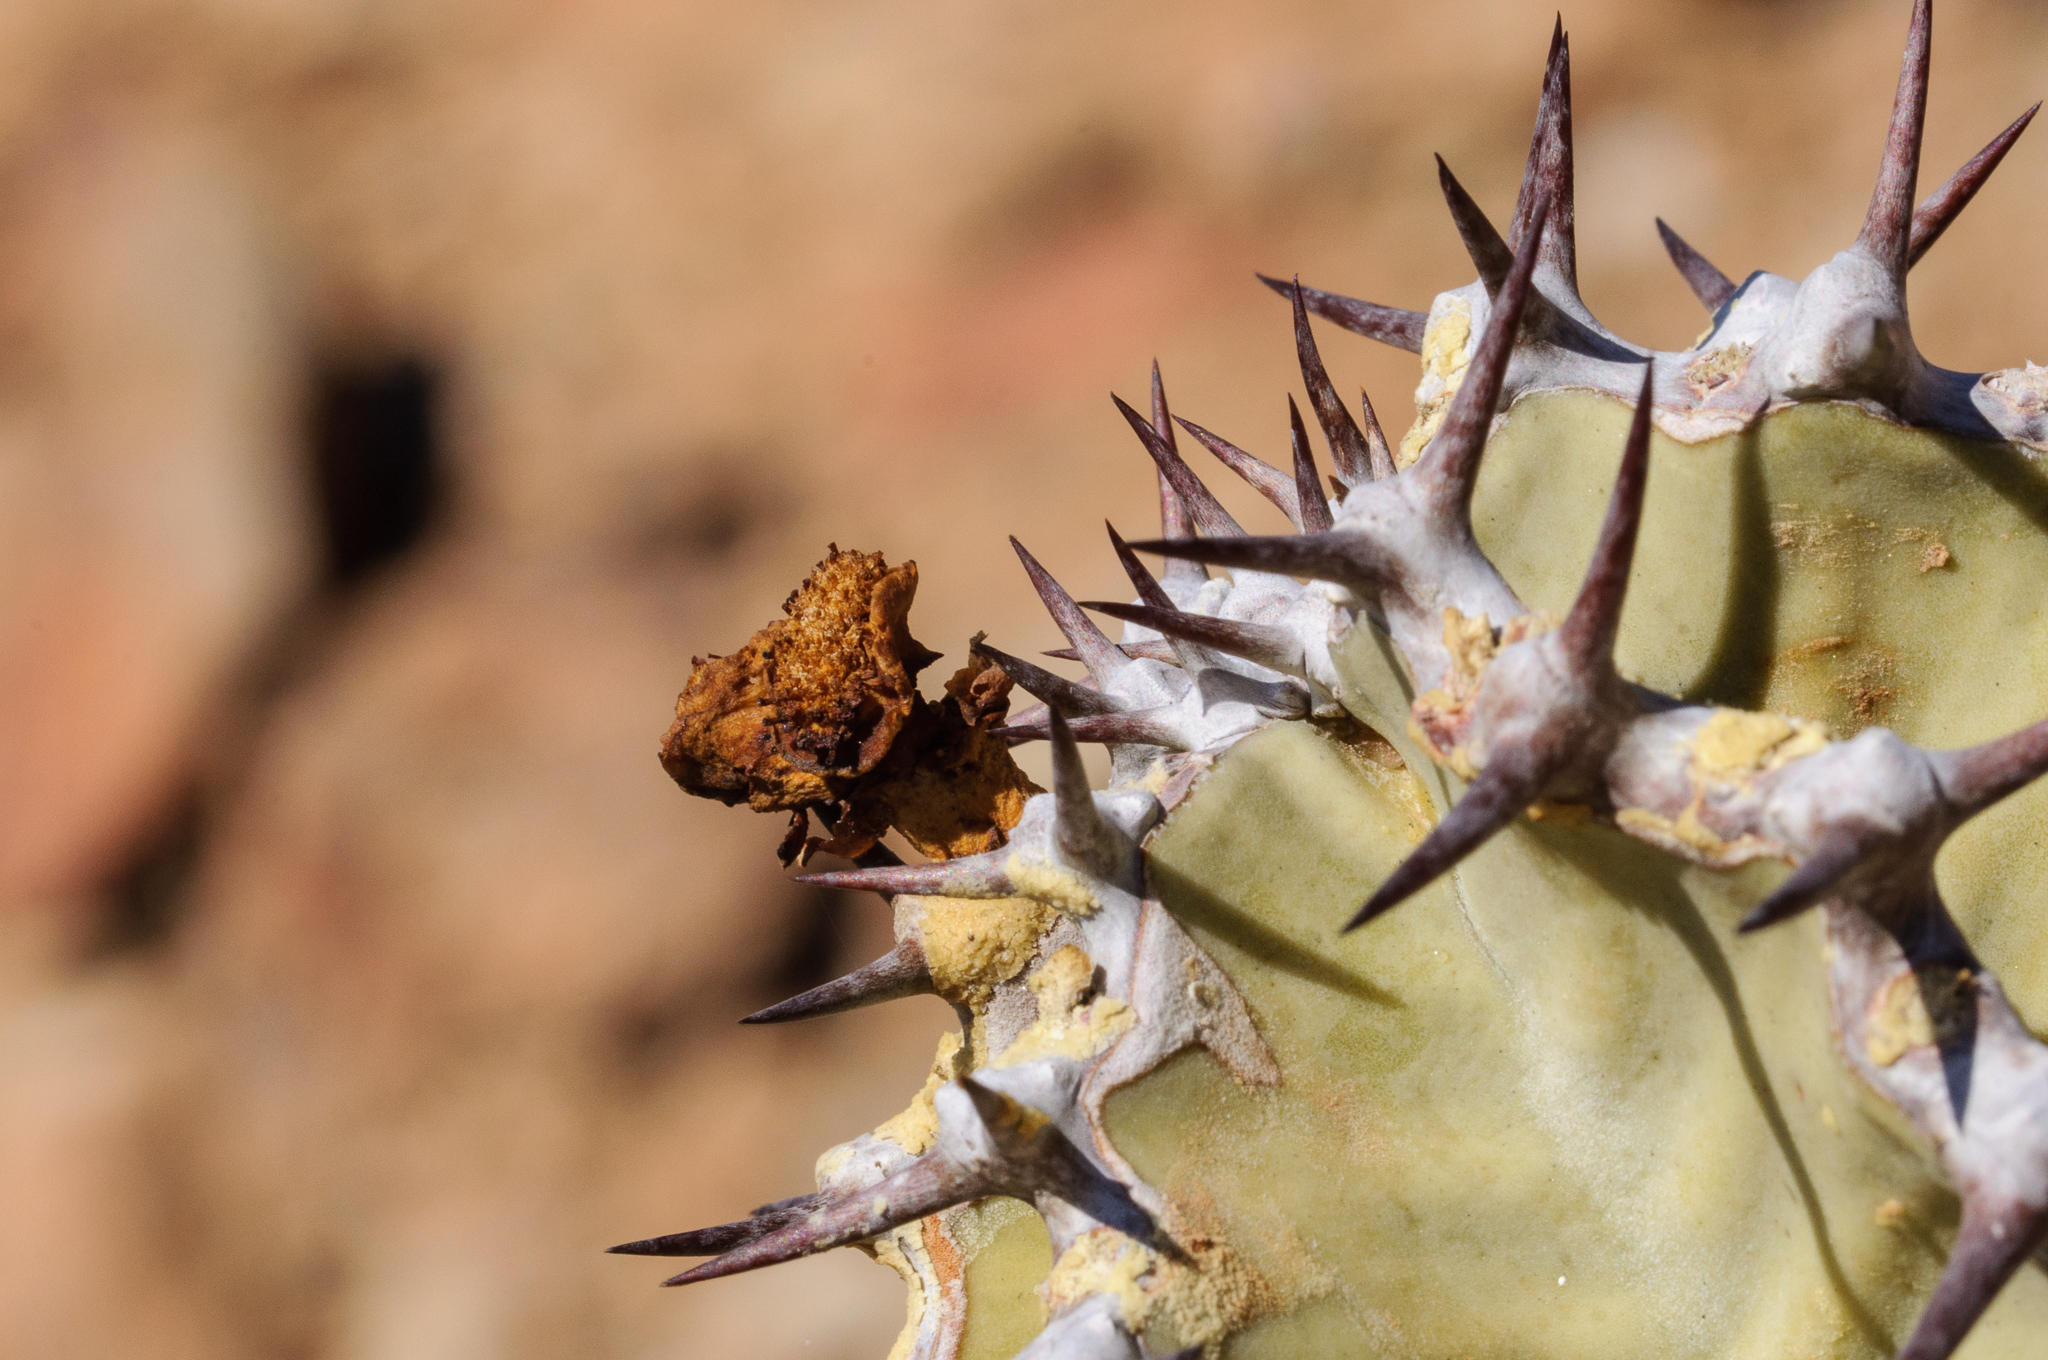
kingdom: Plantae
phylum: Tracheophyta
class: Magnoliopsida
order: Malpighiales
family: Euphorbiaceae
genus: Euphorbia
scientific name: Euphorbia virosa
